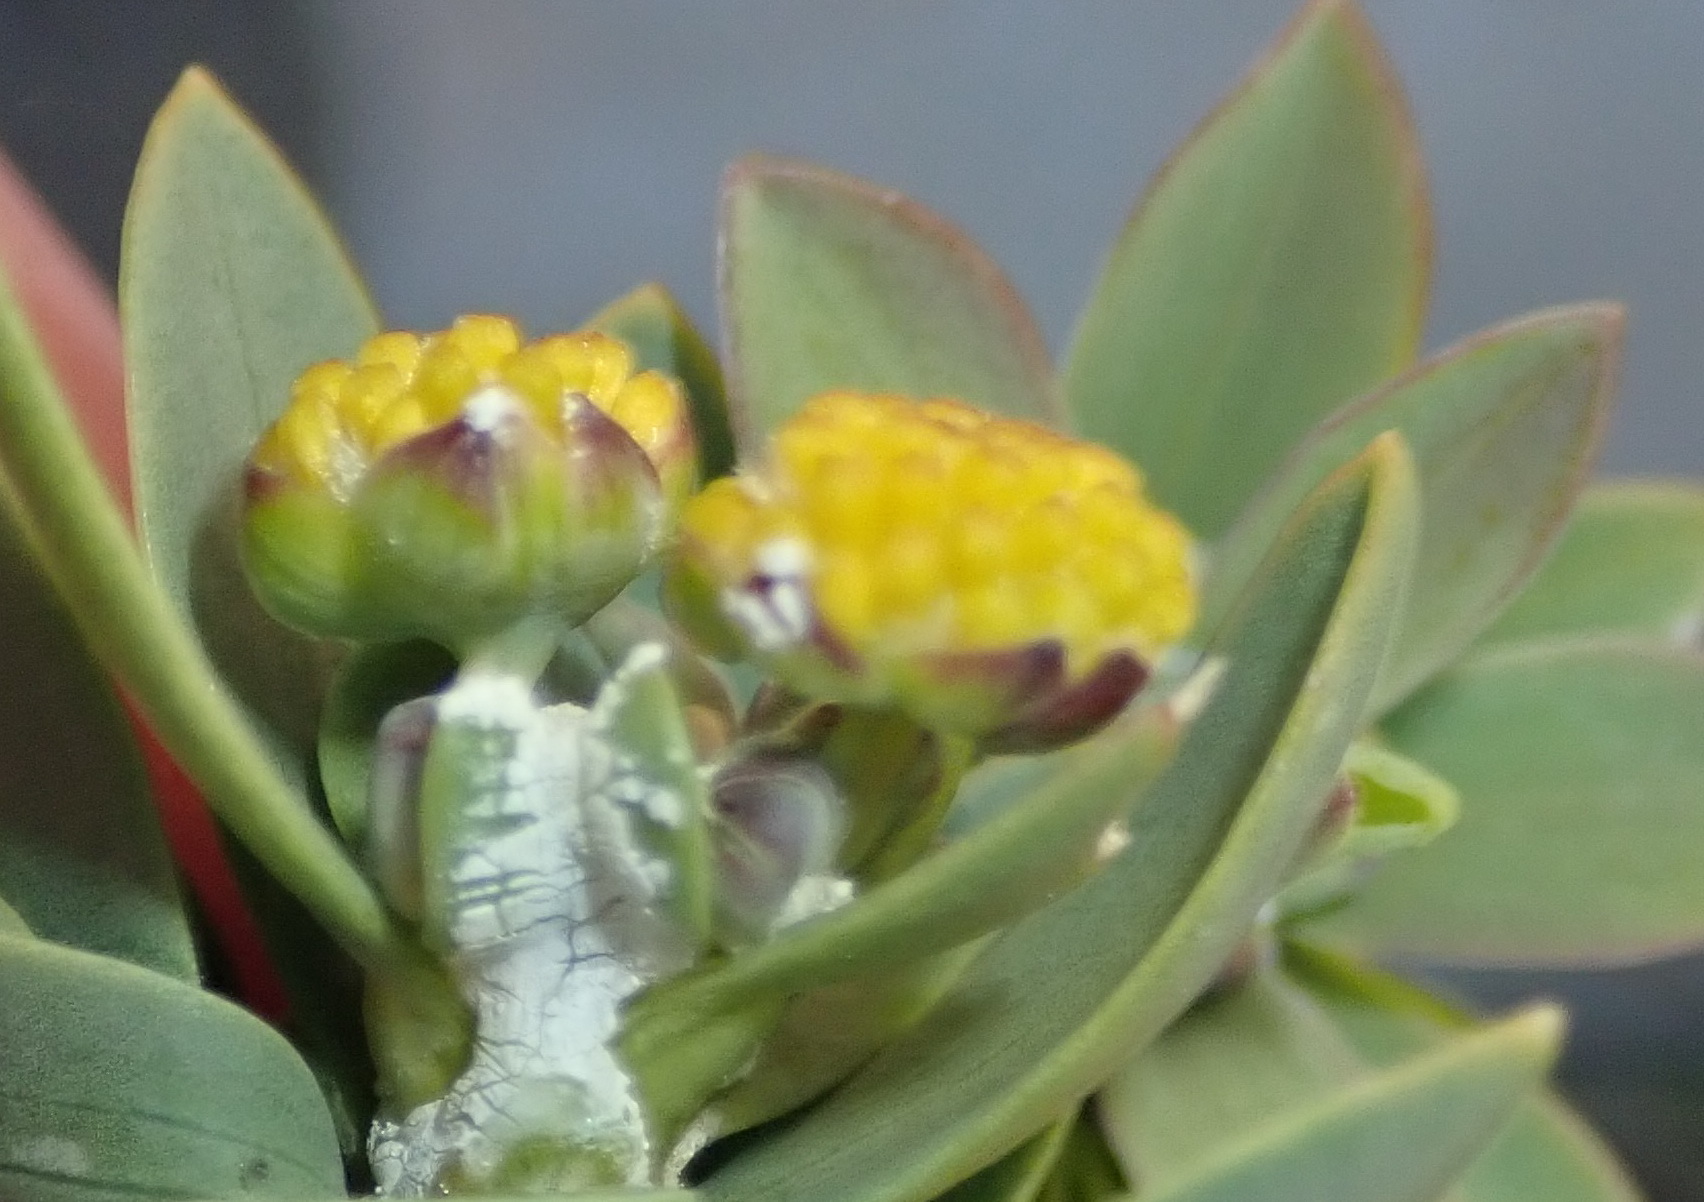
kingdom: Plantae
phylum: Tracheophyta
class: Magnoliopsida
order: Asterales
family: Asteraceae
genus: Euryops
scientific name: Euryops lateriflorus
